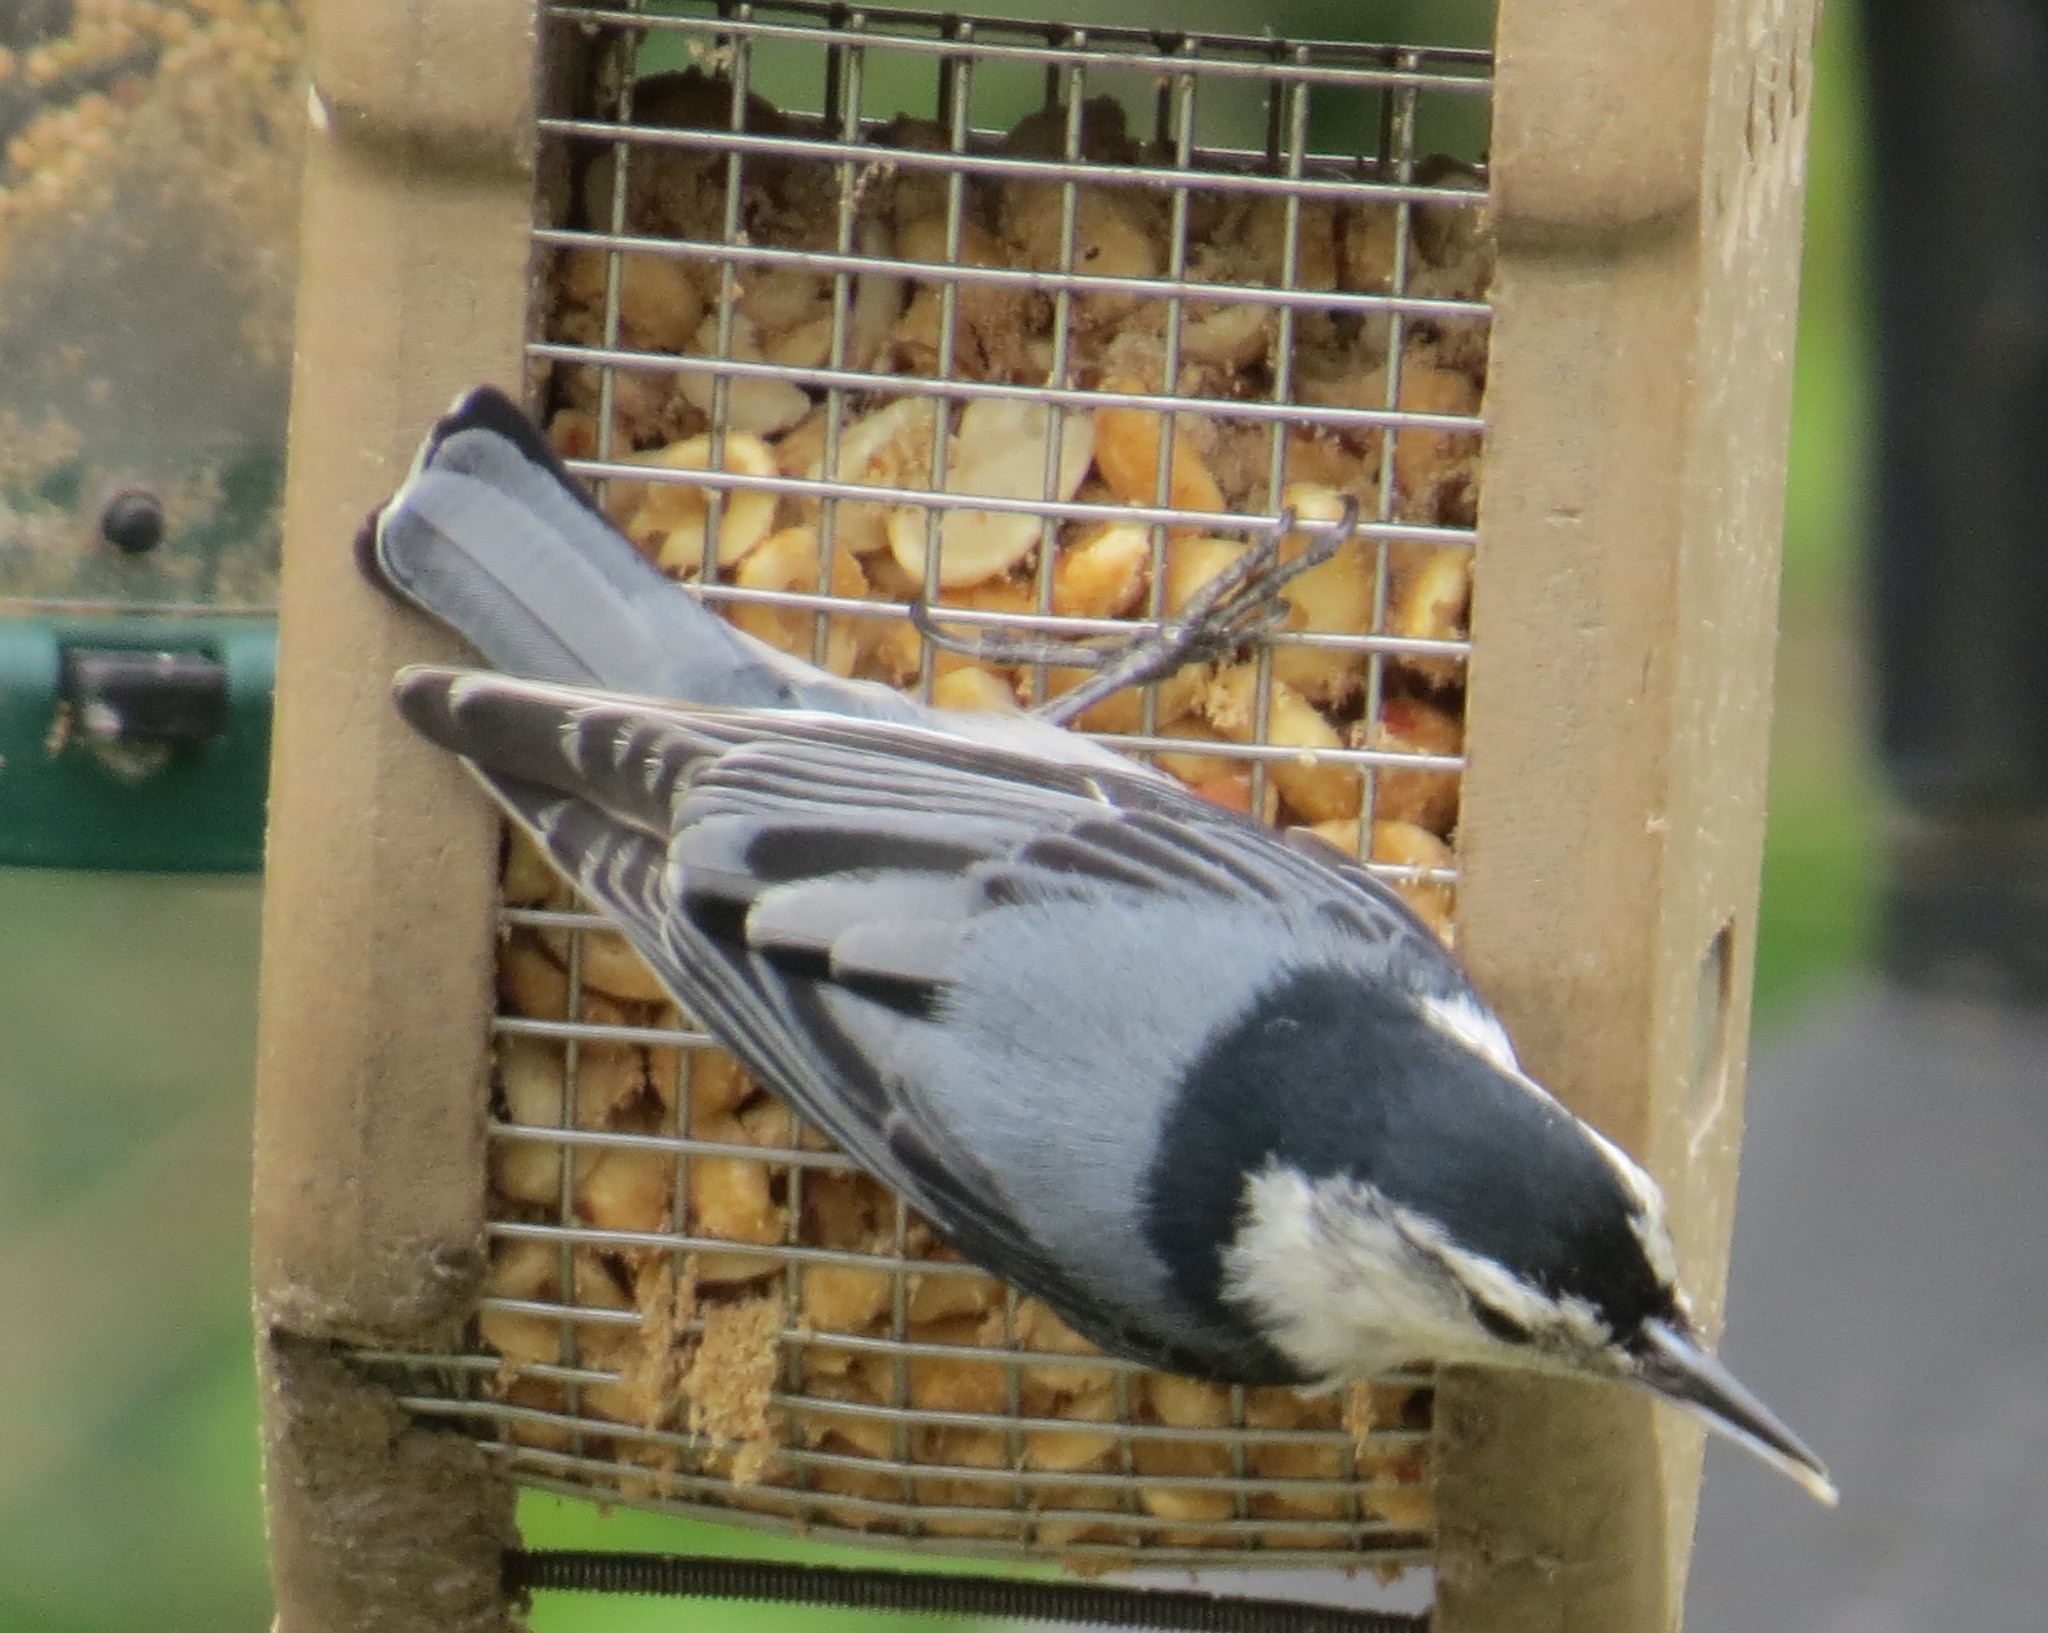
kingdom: Animalia
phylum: Chordata
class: Aves
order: Passeriformes
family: Sittidae
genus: Sitta
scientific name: Sitta carolinensis
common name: White-breasted nuthatch
